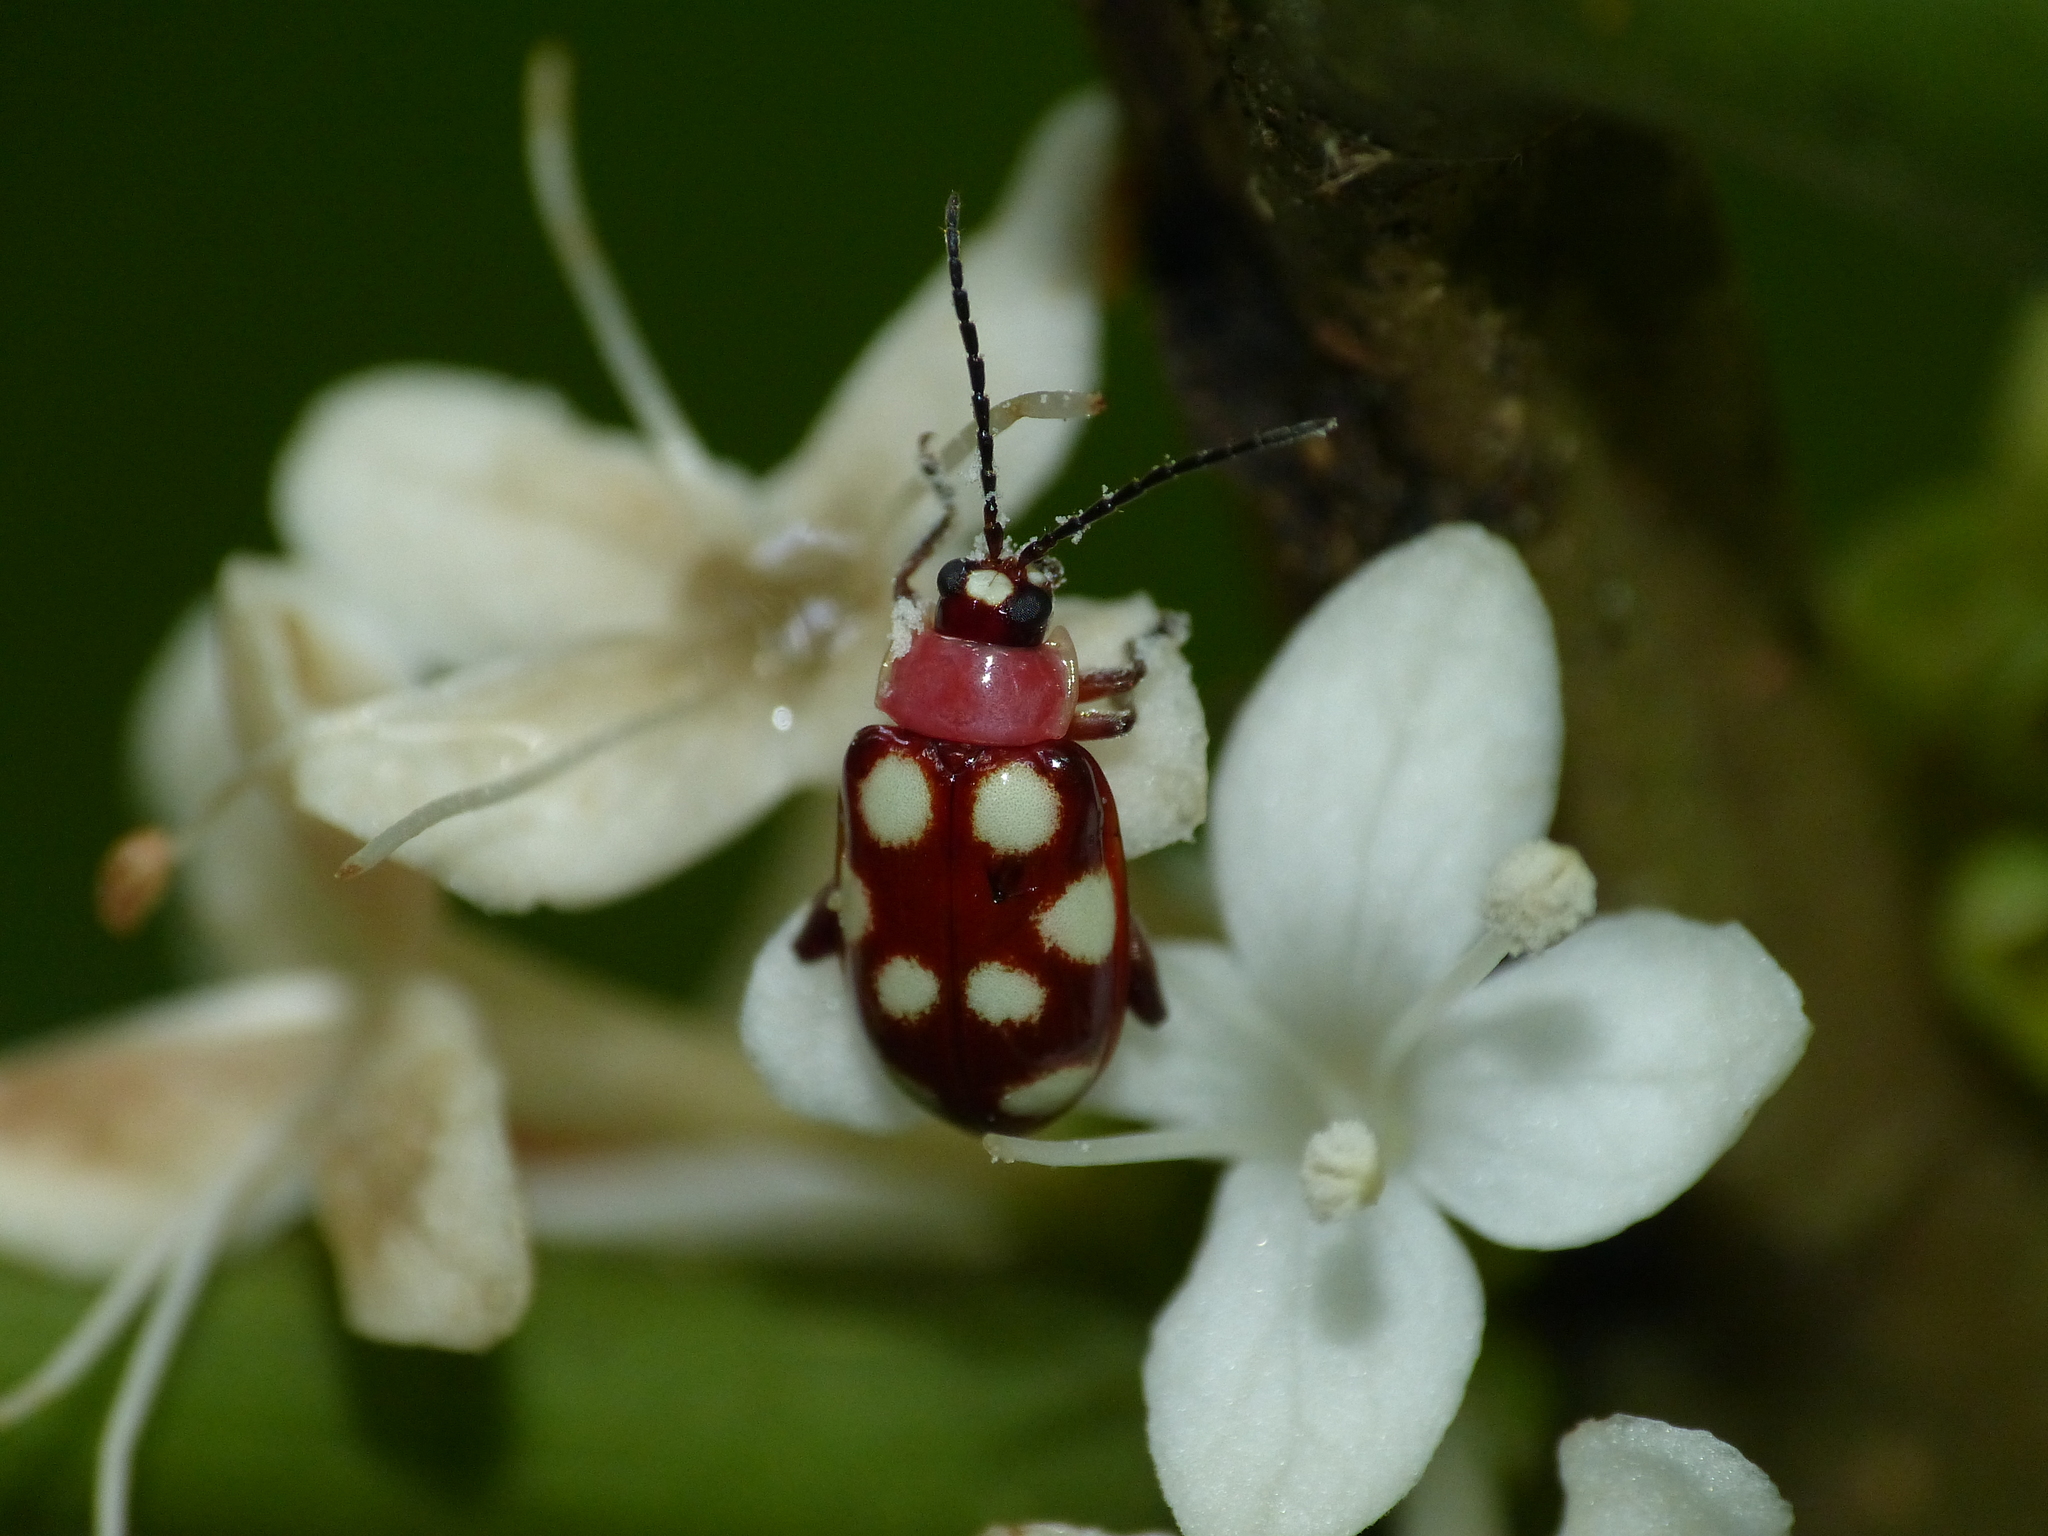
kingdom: Animalia
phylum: Arthropoda
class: Insecta
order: Coleoptera
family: Chrysomelidae
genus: Omophoita
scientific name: Omophoita quadrinotata
